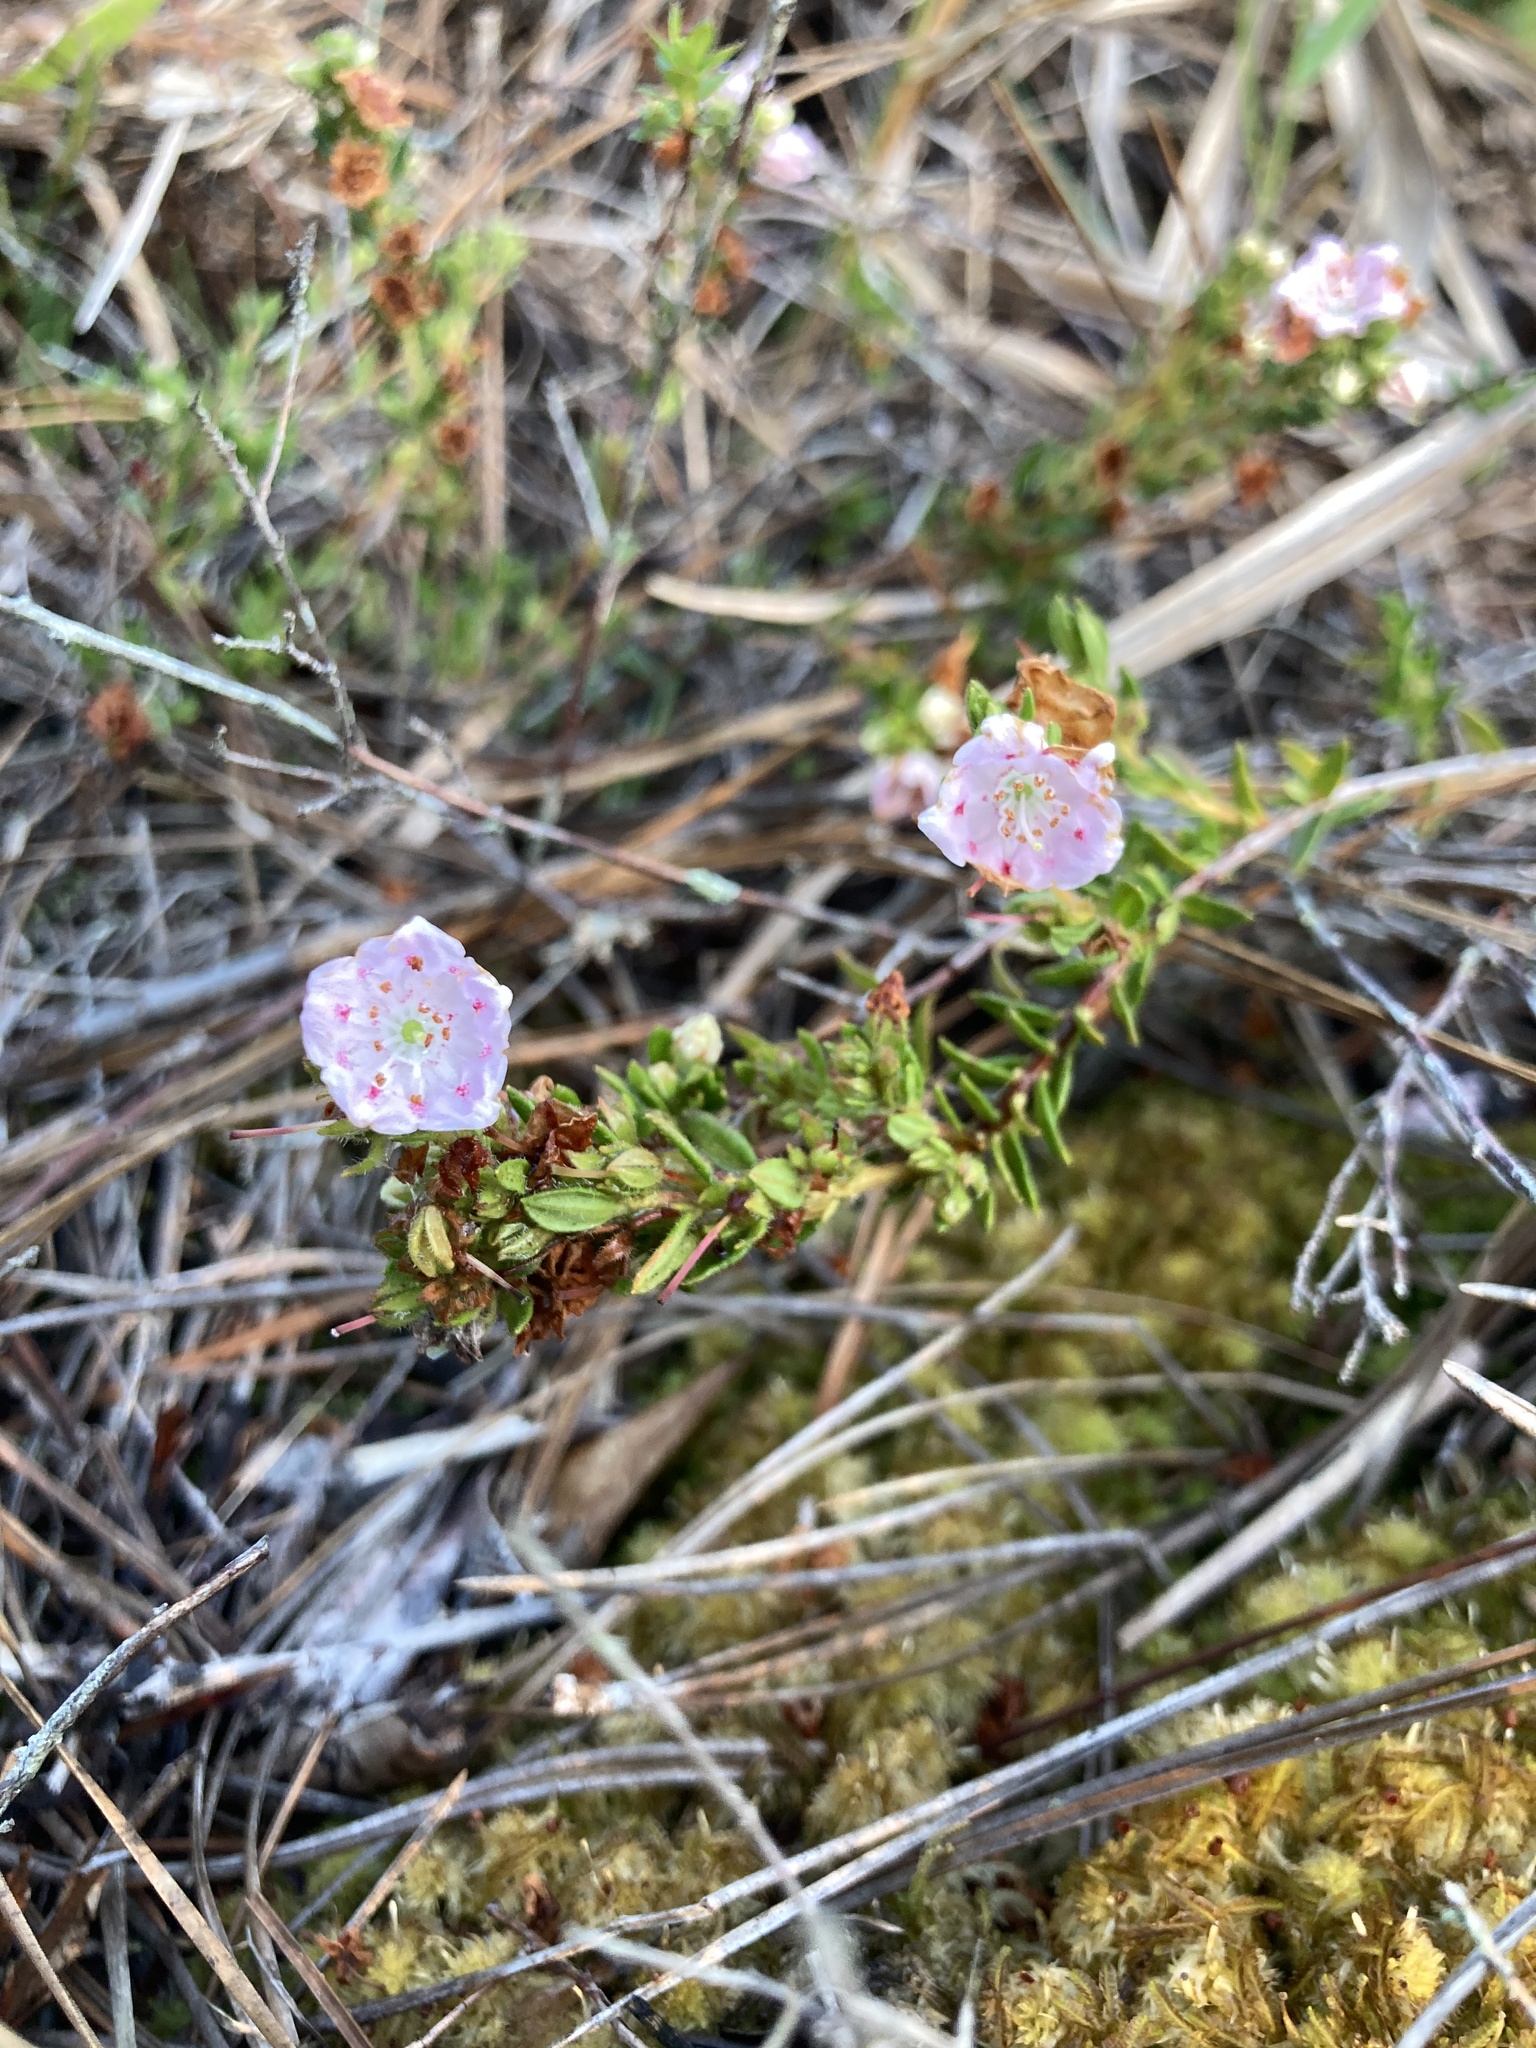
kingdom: Plantae
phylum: Tracheophyta
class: Magnoliopsida
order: Ericales
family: Ericaceae
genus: Kalmia
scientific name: Kalmia hirsuta
